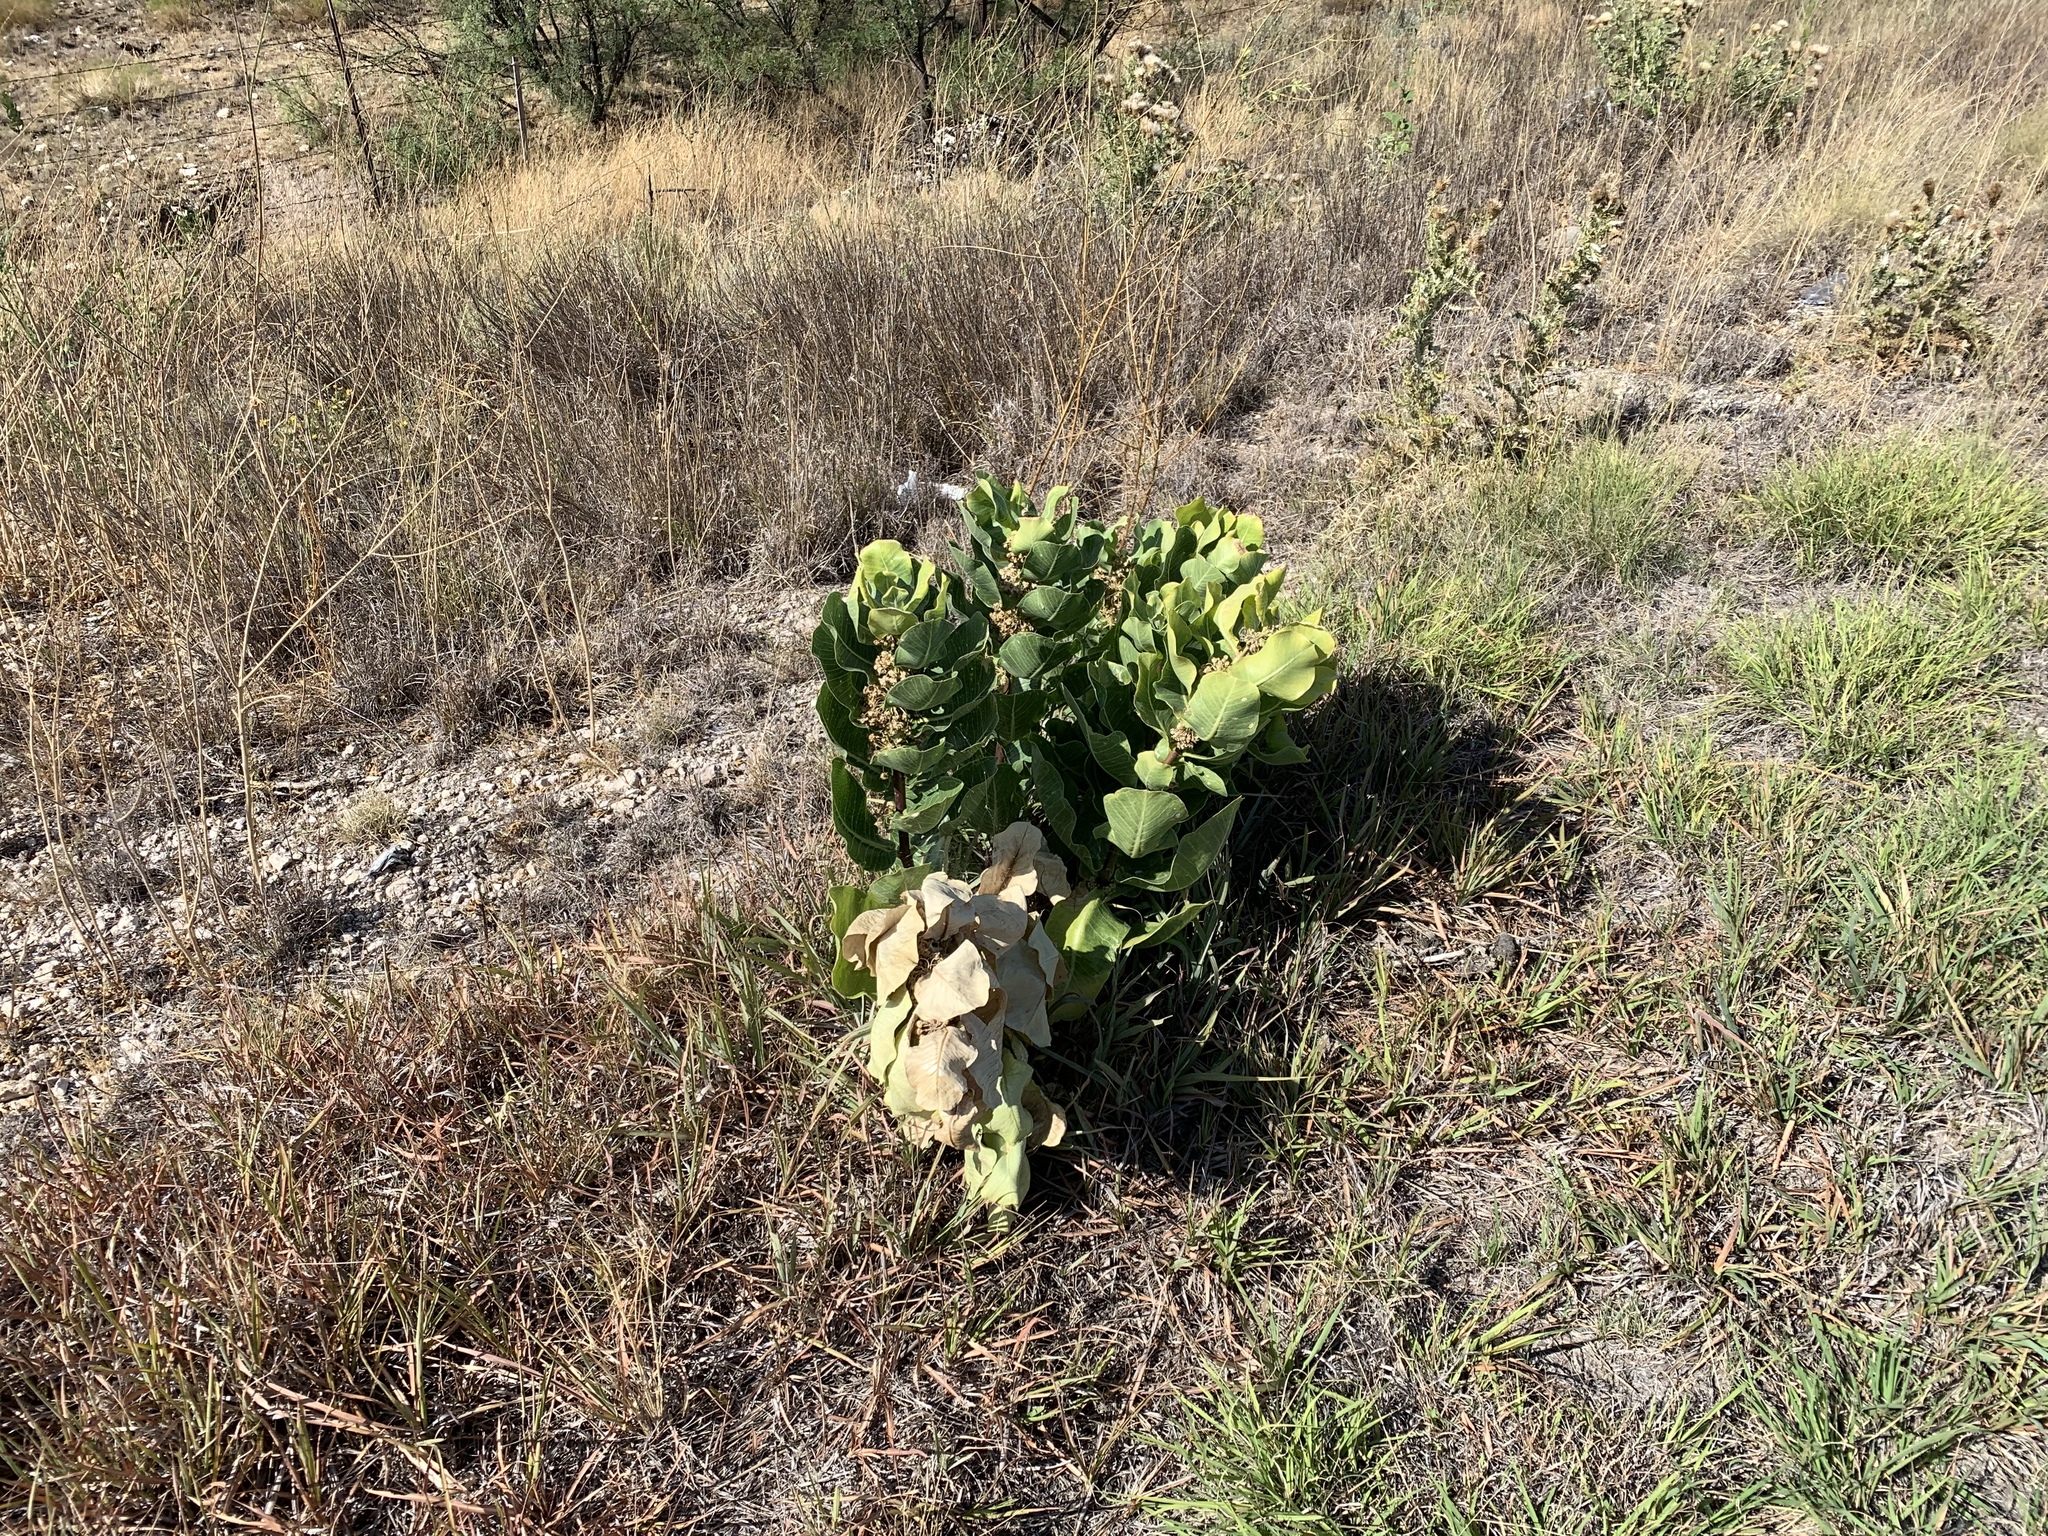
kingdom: Plantae
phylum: Tracheophyta
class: Magnoliopsida
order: Gentianales
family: Apocynaceae
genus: Asclepias
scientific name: Asclepias latifolia
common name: Broadleaf milkweed
